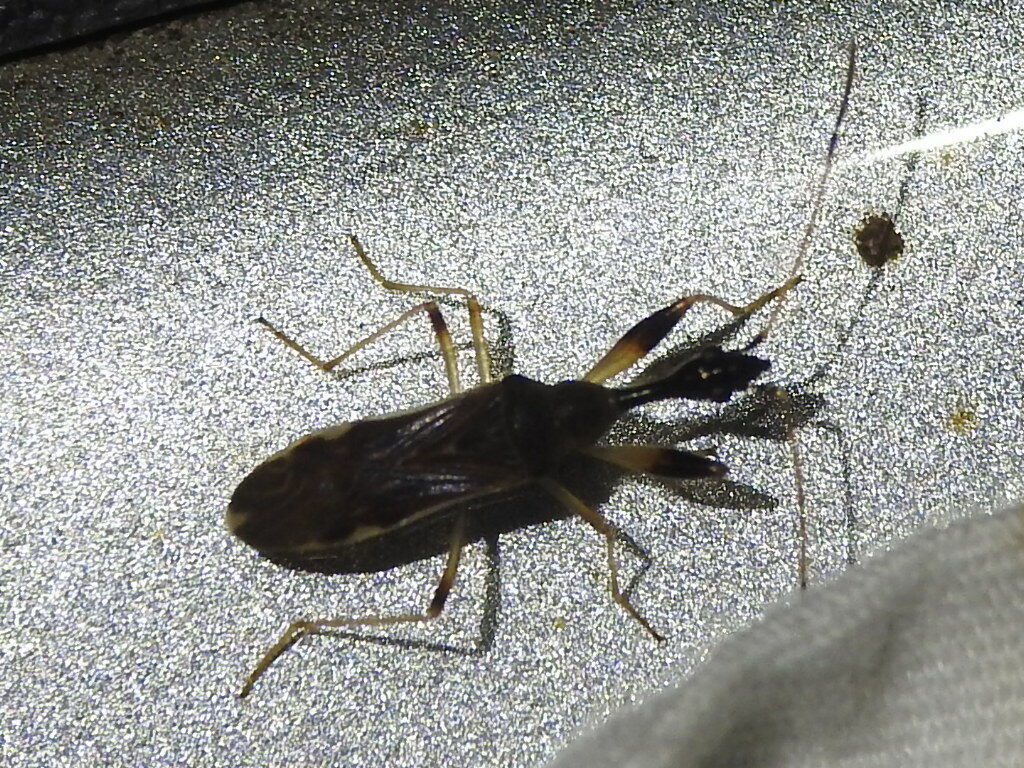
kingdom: Animalia
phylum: Arthropoda
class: Insecta
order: Hemiptera
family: Rhyparochromidae
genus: Myodocha
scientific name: Myodocha serripes
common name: Long-necked seed bug
